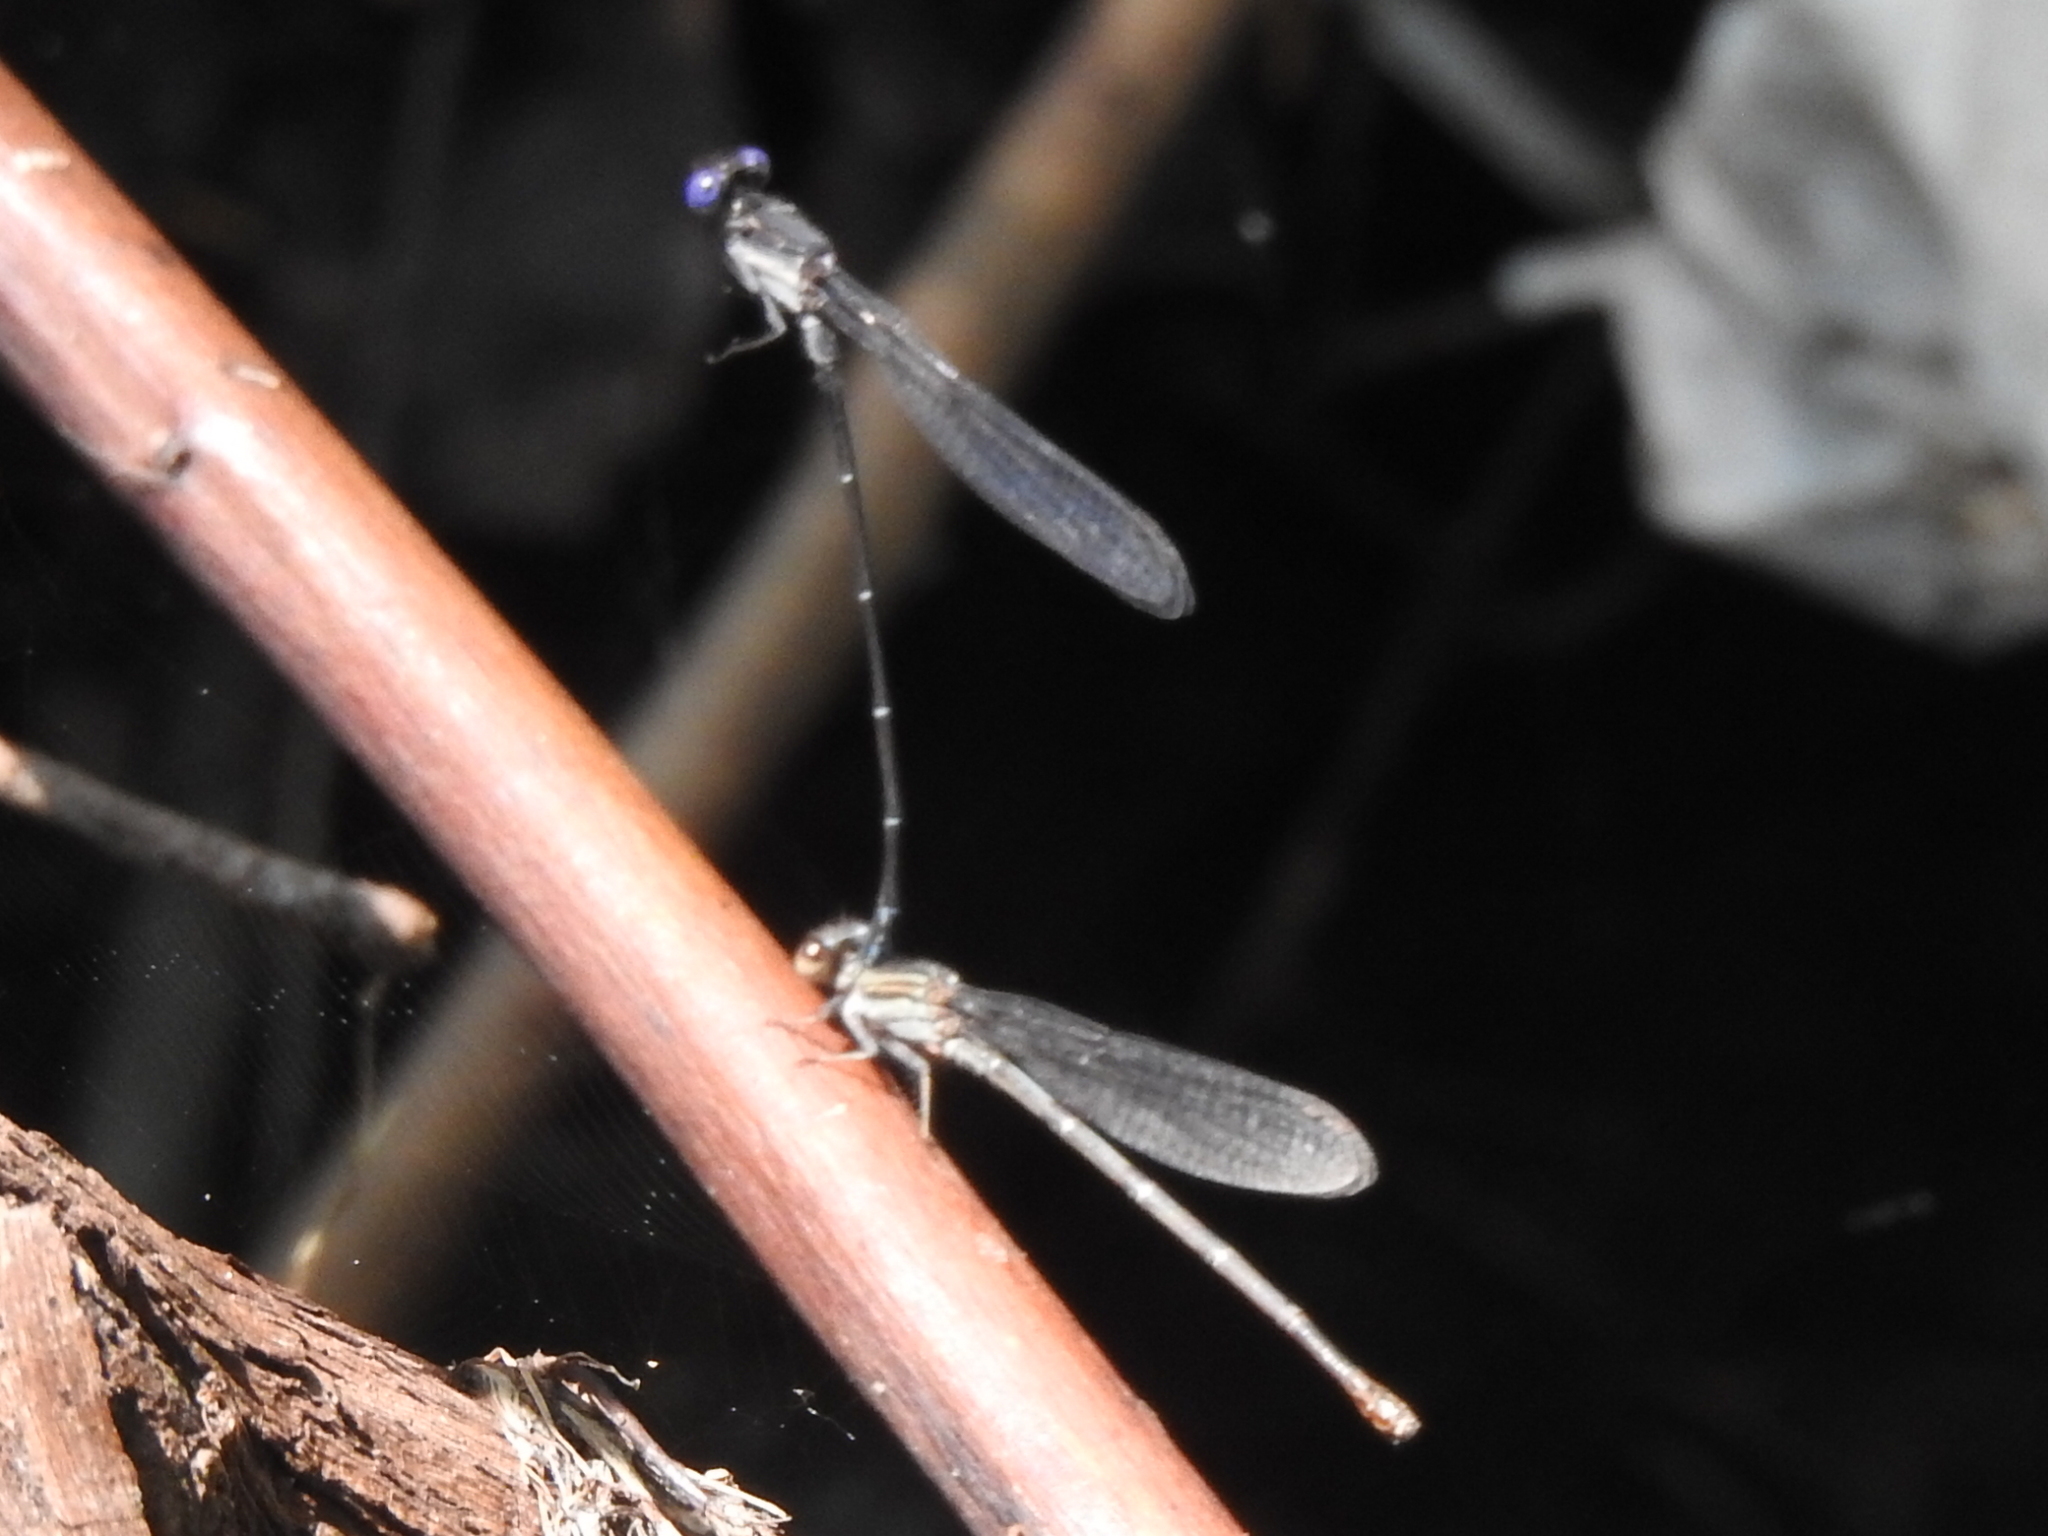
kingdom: Animalia
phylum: Arthropoda
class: Insecta
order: Odonata
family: Coenagrionidae
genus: Argia
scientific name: Argia translata
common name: Dusky dancer
